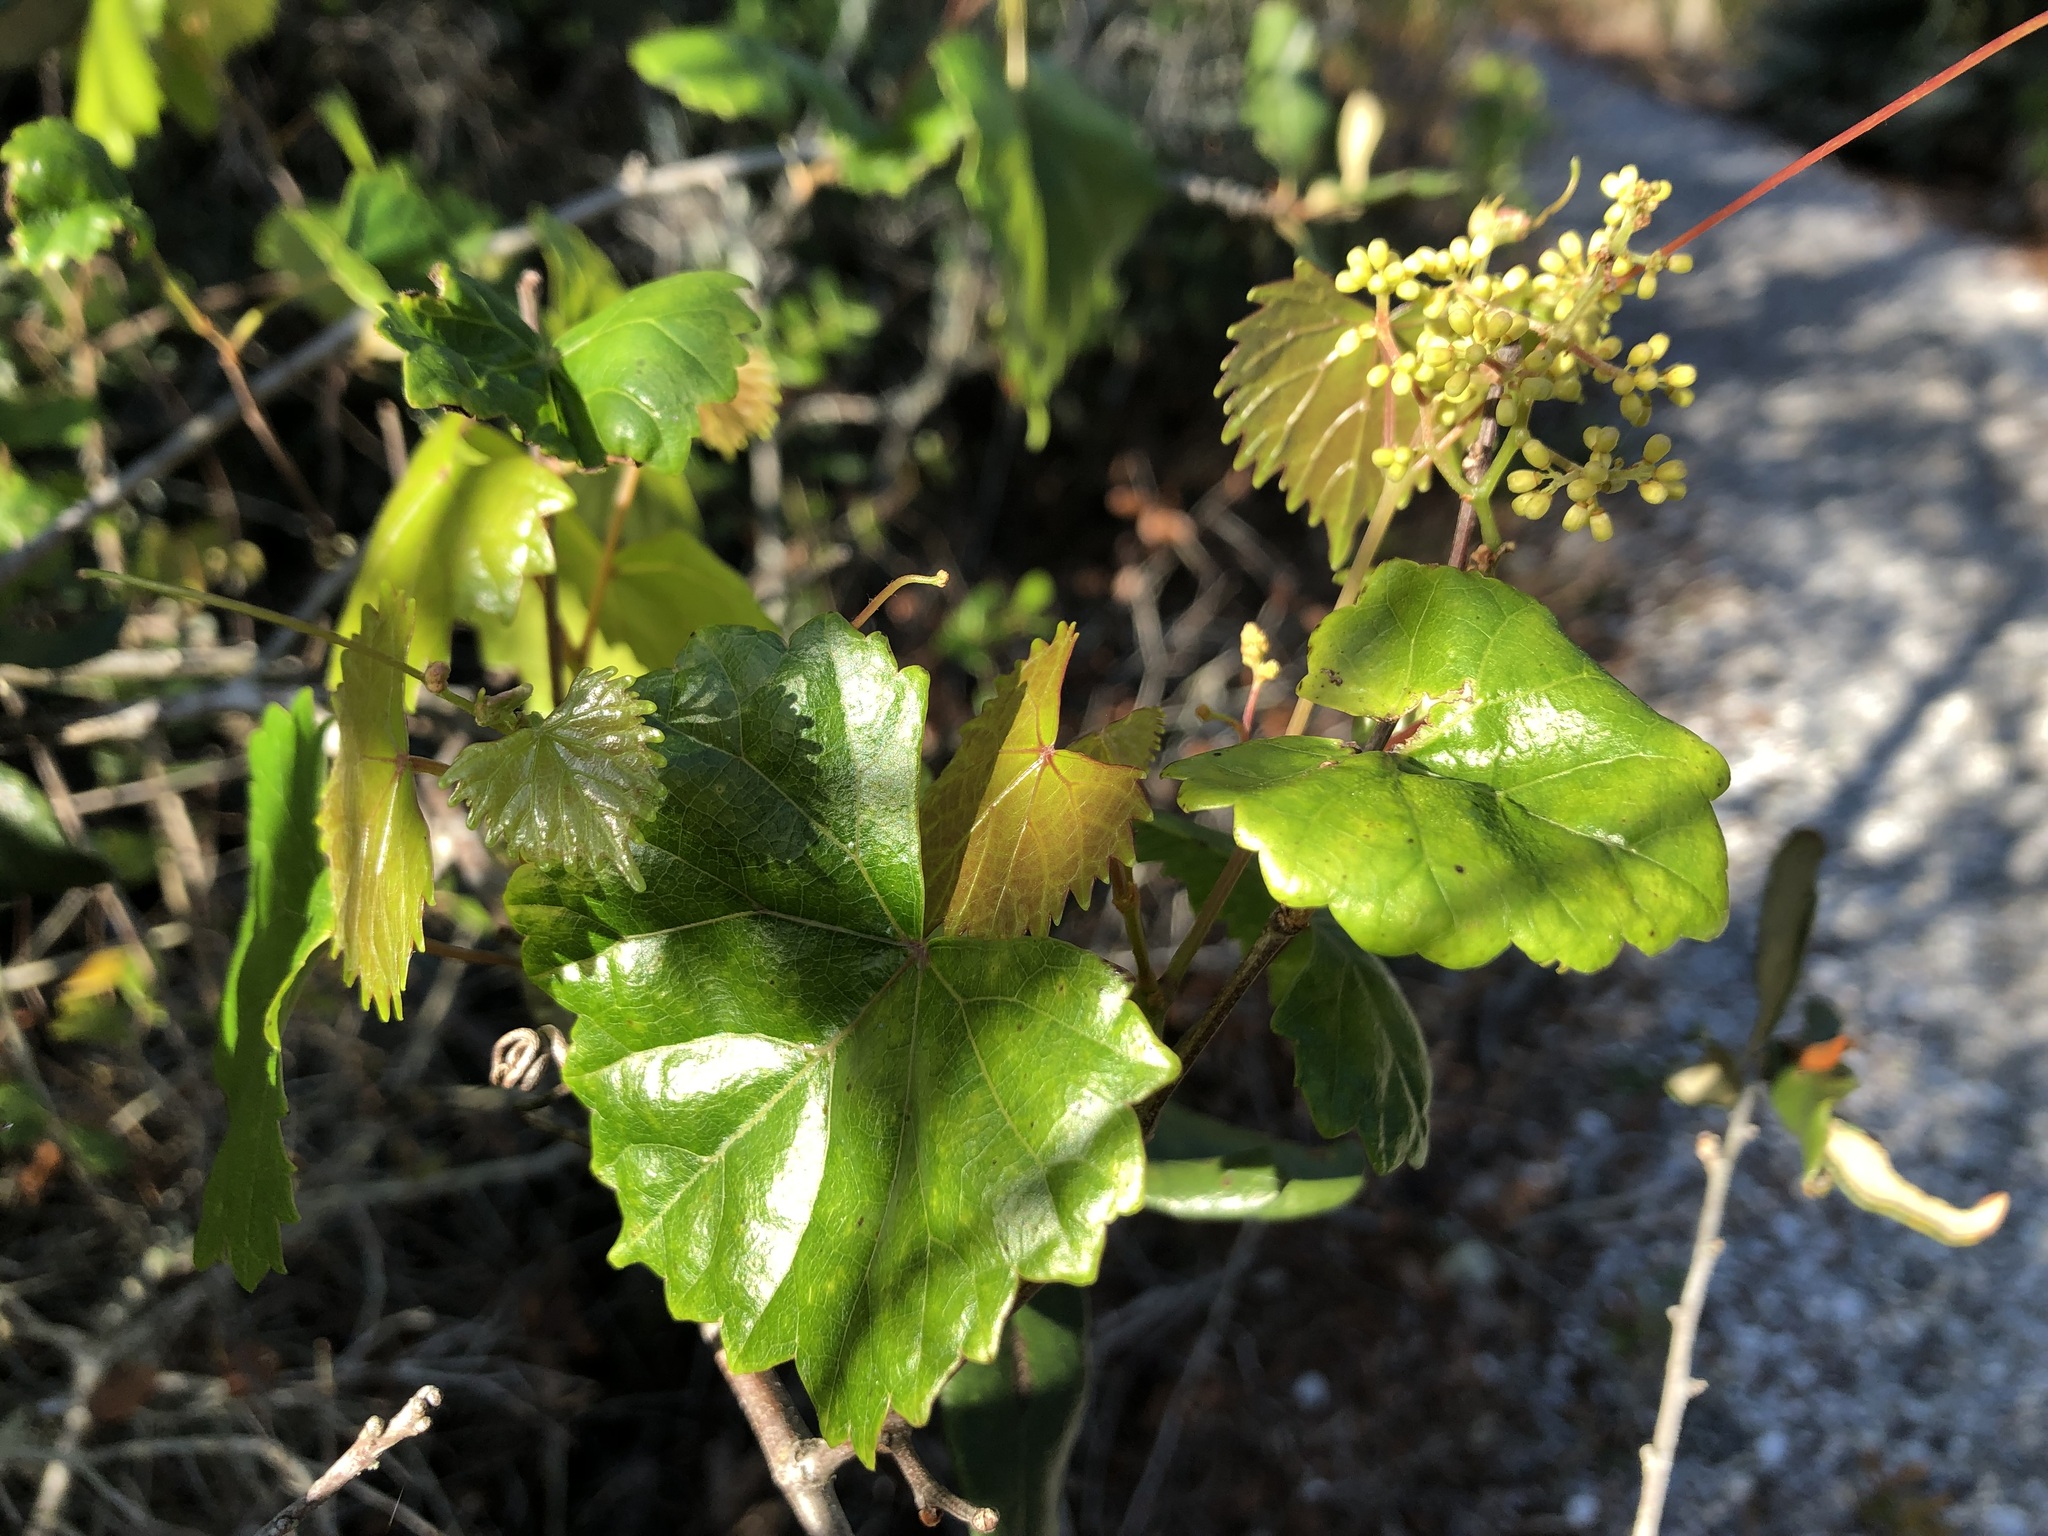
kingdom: Plantae
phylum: Tracheophyta
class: Magnoliopsida
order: Vitales
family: Vitaceae
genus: Vitis
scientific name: Vitis rotundifolia
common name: Muscadine grape
